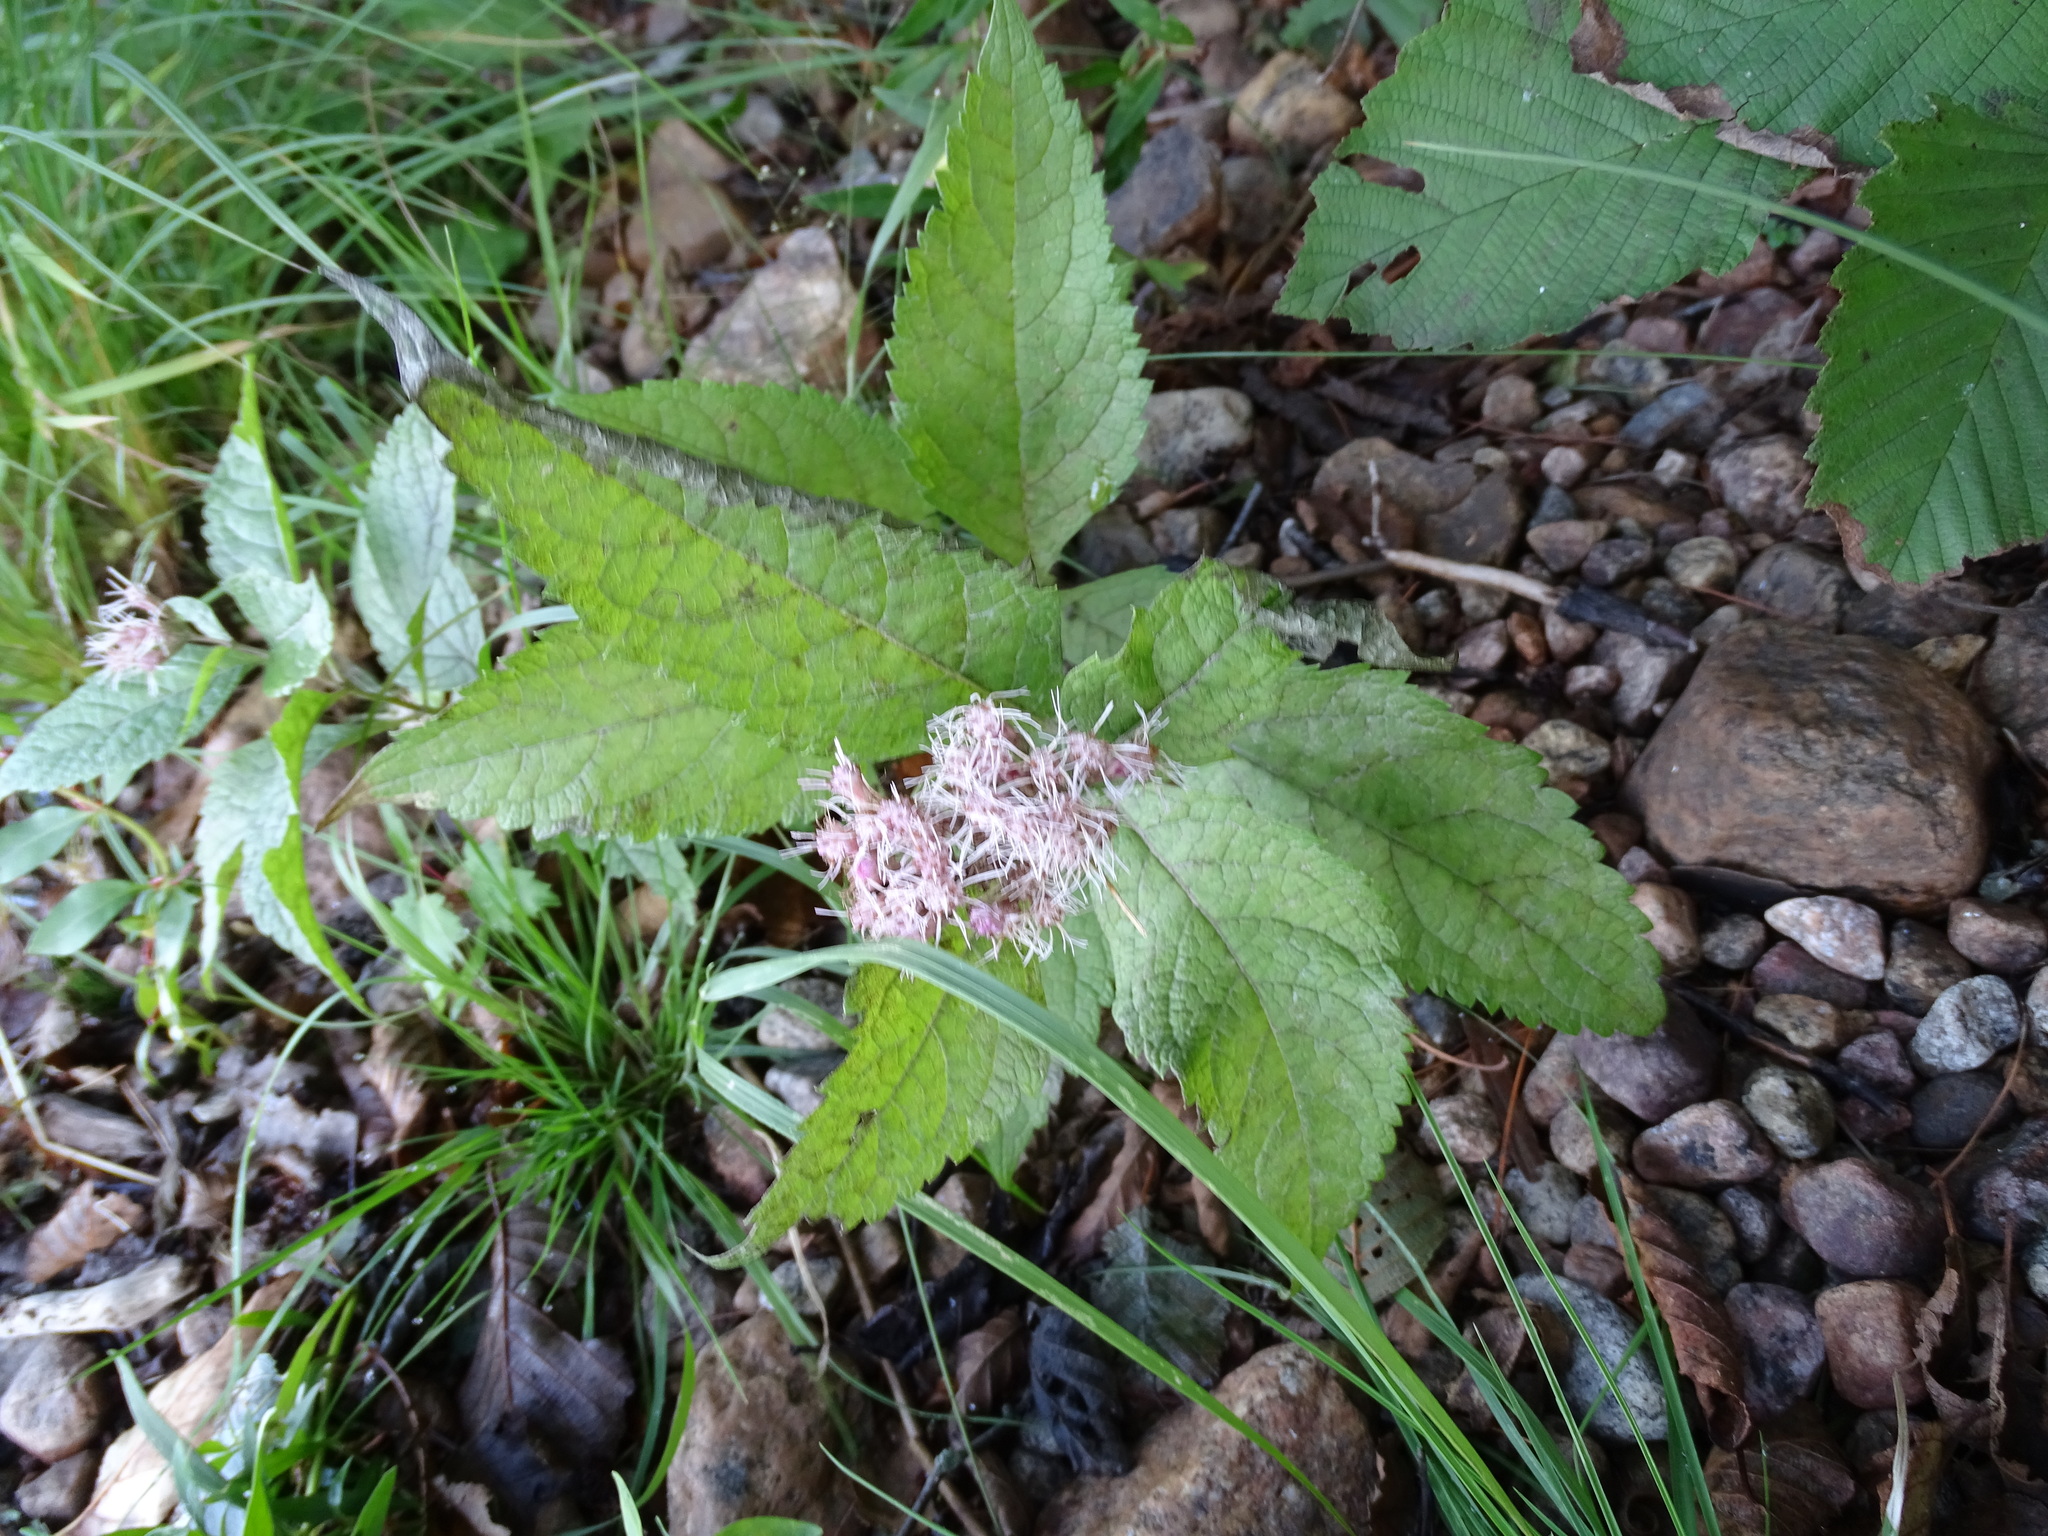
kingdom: Plantae
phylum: Tracheophyta
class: Magnoliopsida
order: Asterales
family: Asteraceae
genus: Eutrochium
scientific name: Eutrochium maculatum
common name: Spotted joe pye weed
